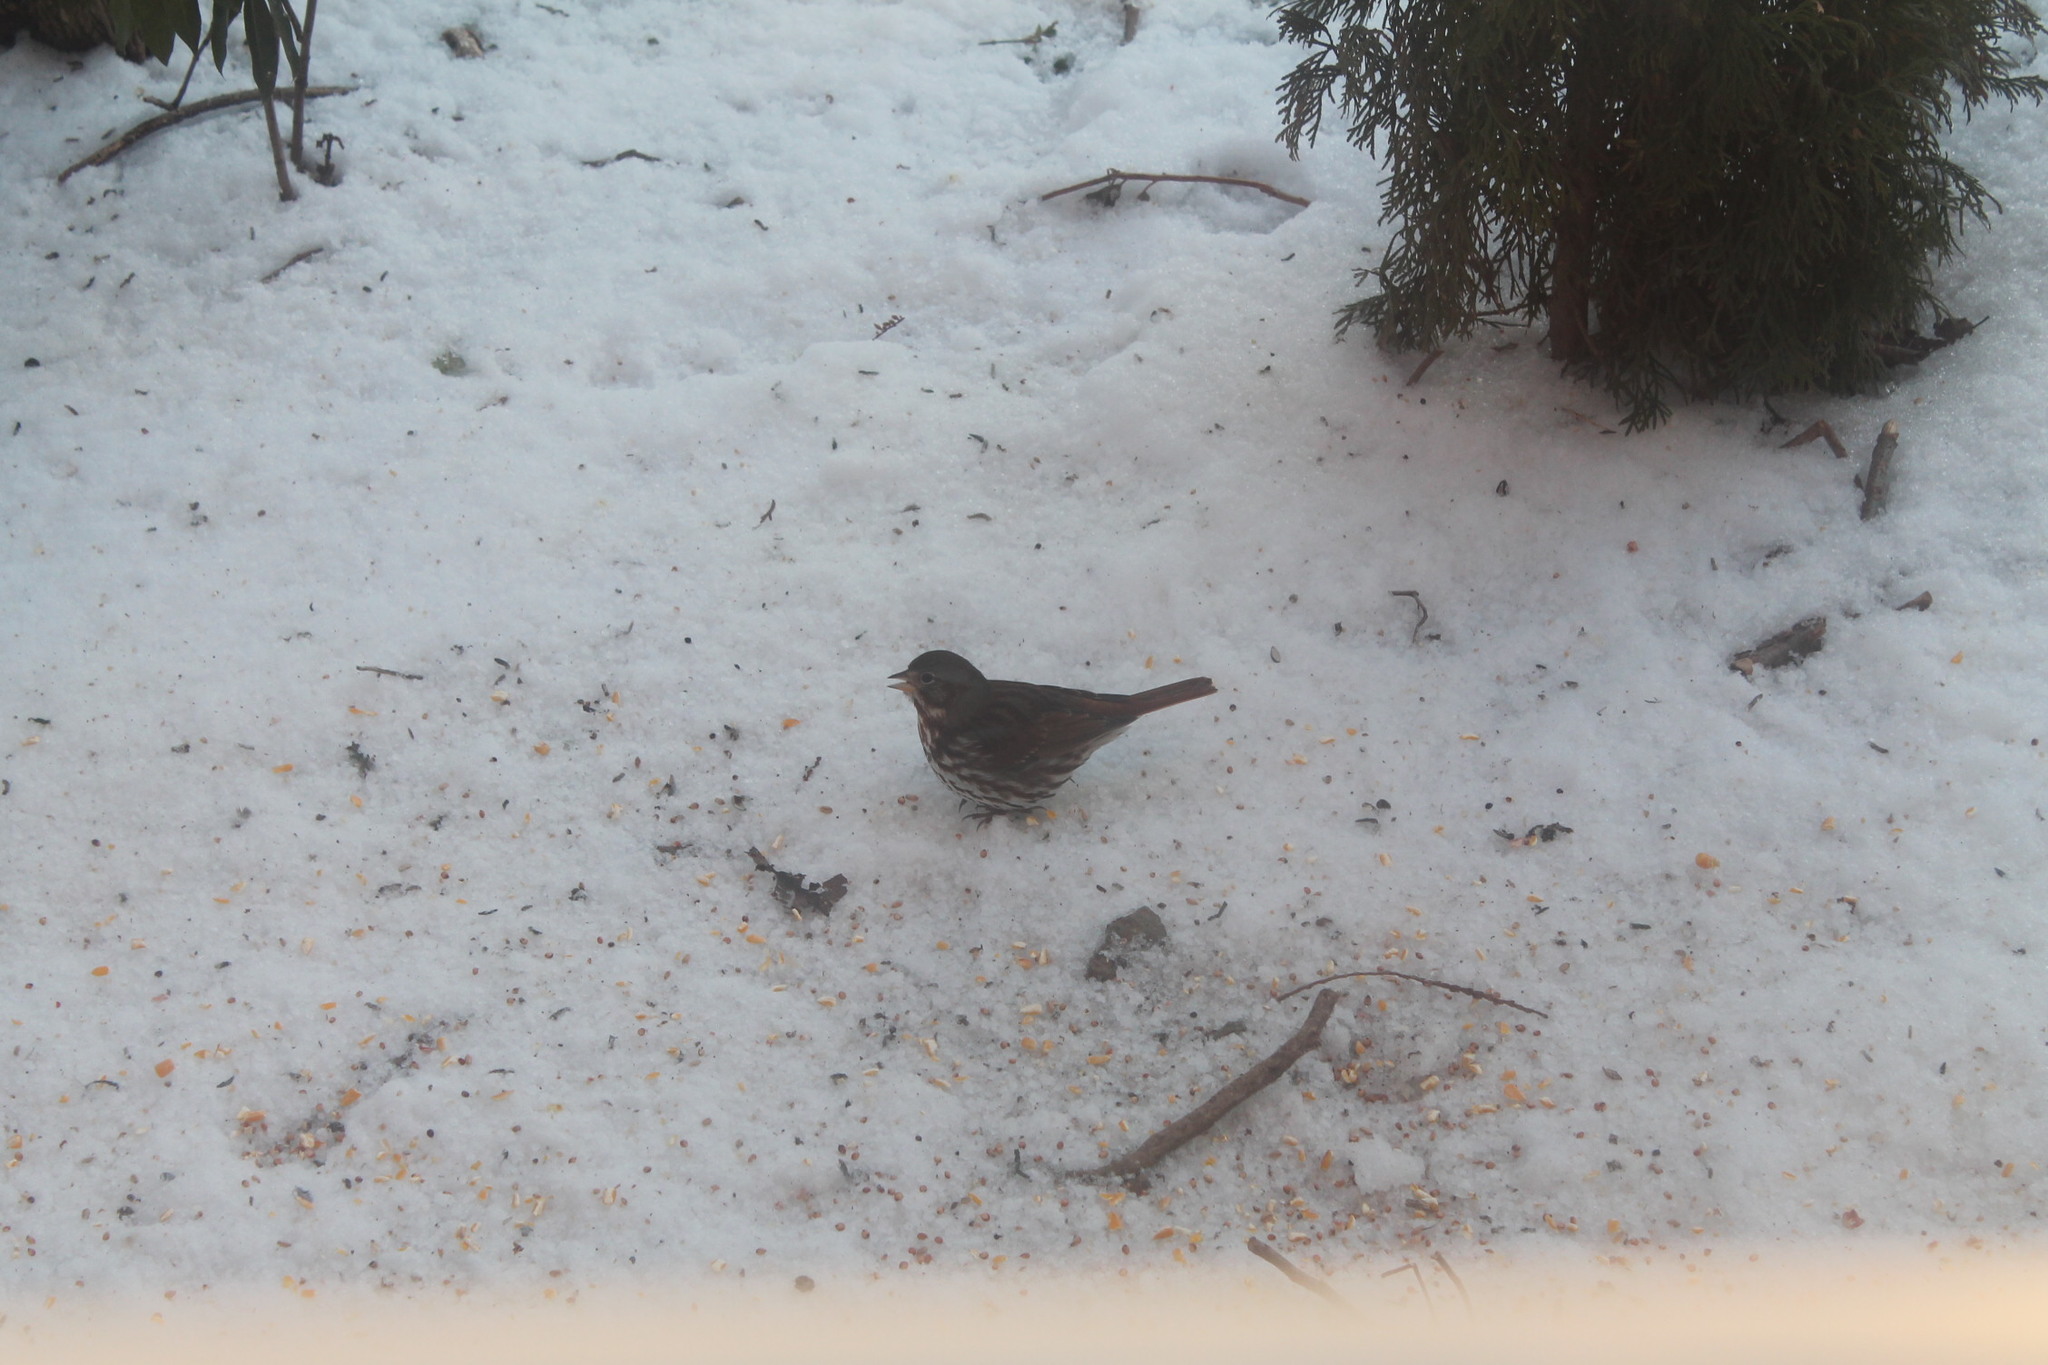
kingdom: Animalia
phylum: Chordata
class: Aves
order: Passeriformes
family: Passerellidae
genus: Passerella
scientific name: Passerella iliaca
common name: Fox sparrow
